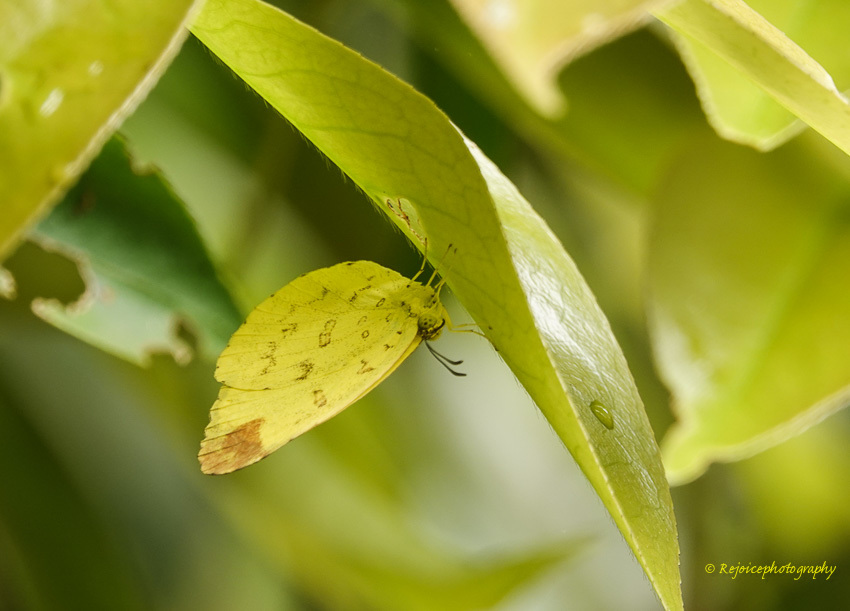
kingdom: Animalia
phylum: Arthropoda
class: Insecta
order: Lepidoptera
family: Pieridae
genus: Eurema
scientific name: Eurema blanda
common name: Three-spot grass yellow
